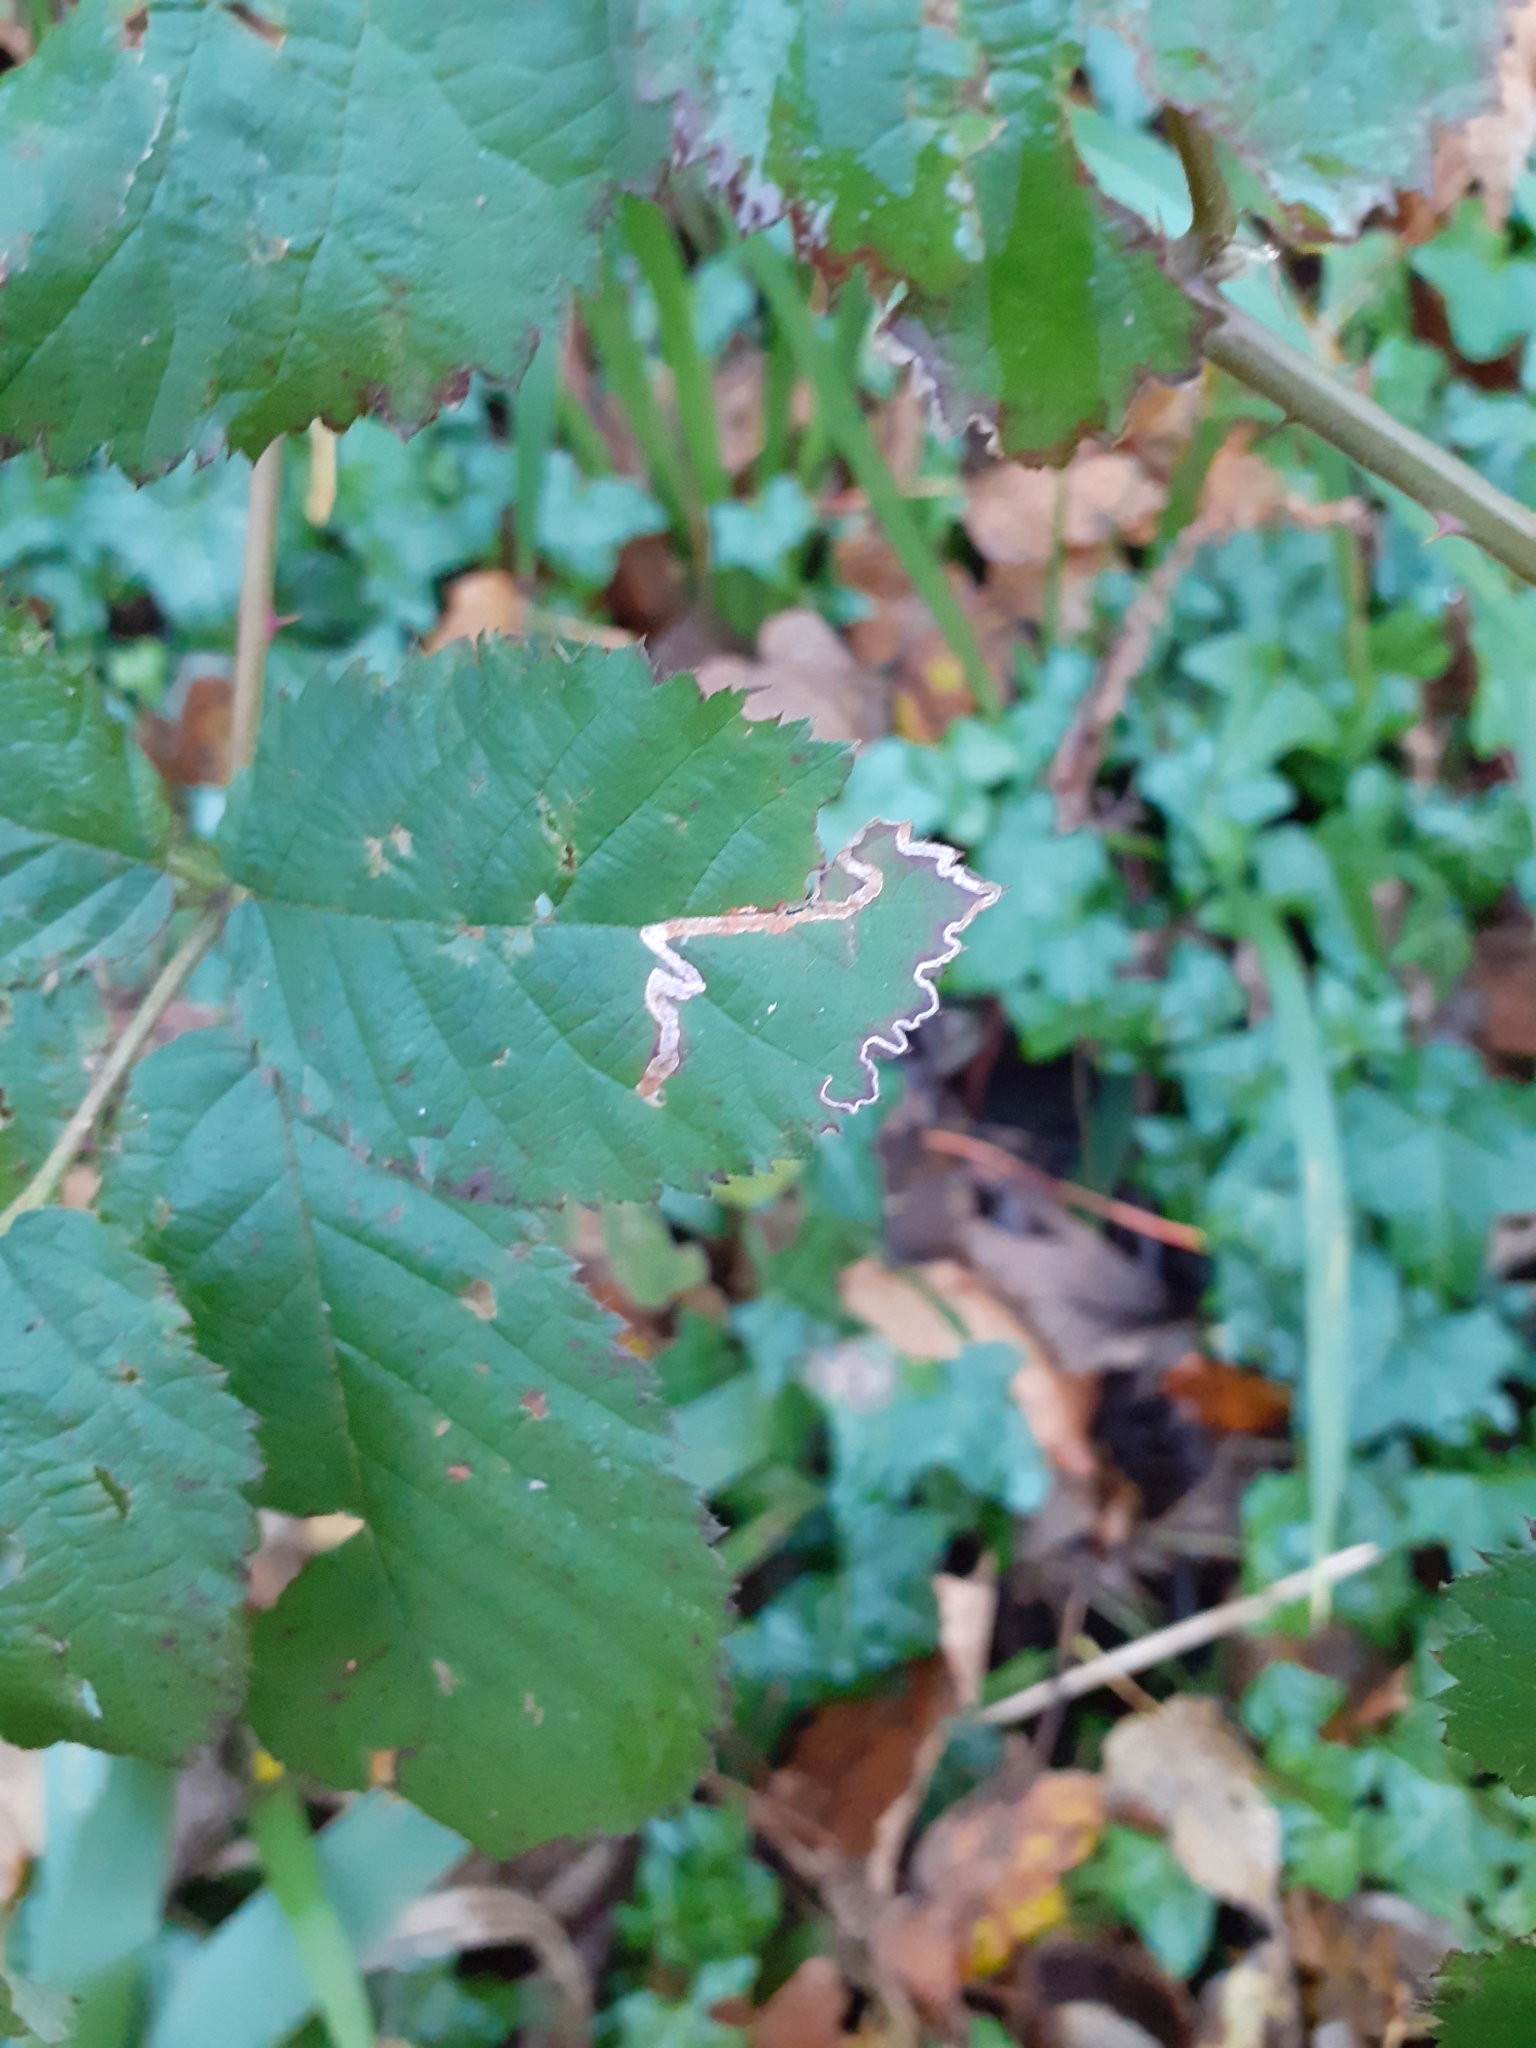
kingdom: Animalia
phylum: Arthropoda
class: Insecta
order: Lepidoptera
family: Nepticulidae
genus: Stigmella
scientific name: Stigmella aurella
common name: Golden pigmy
